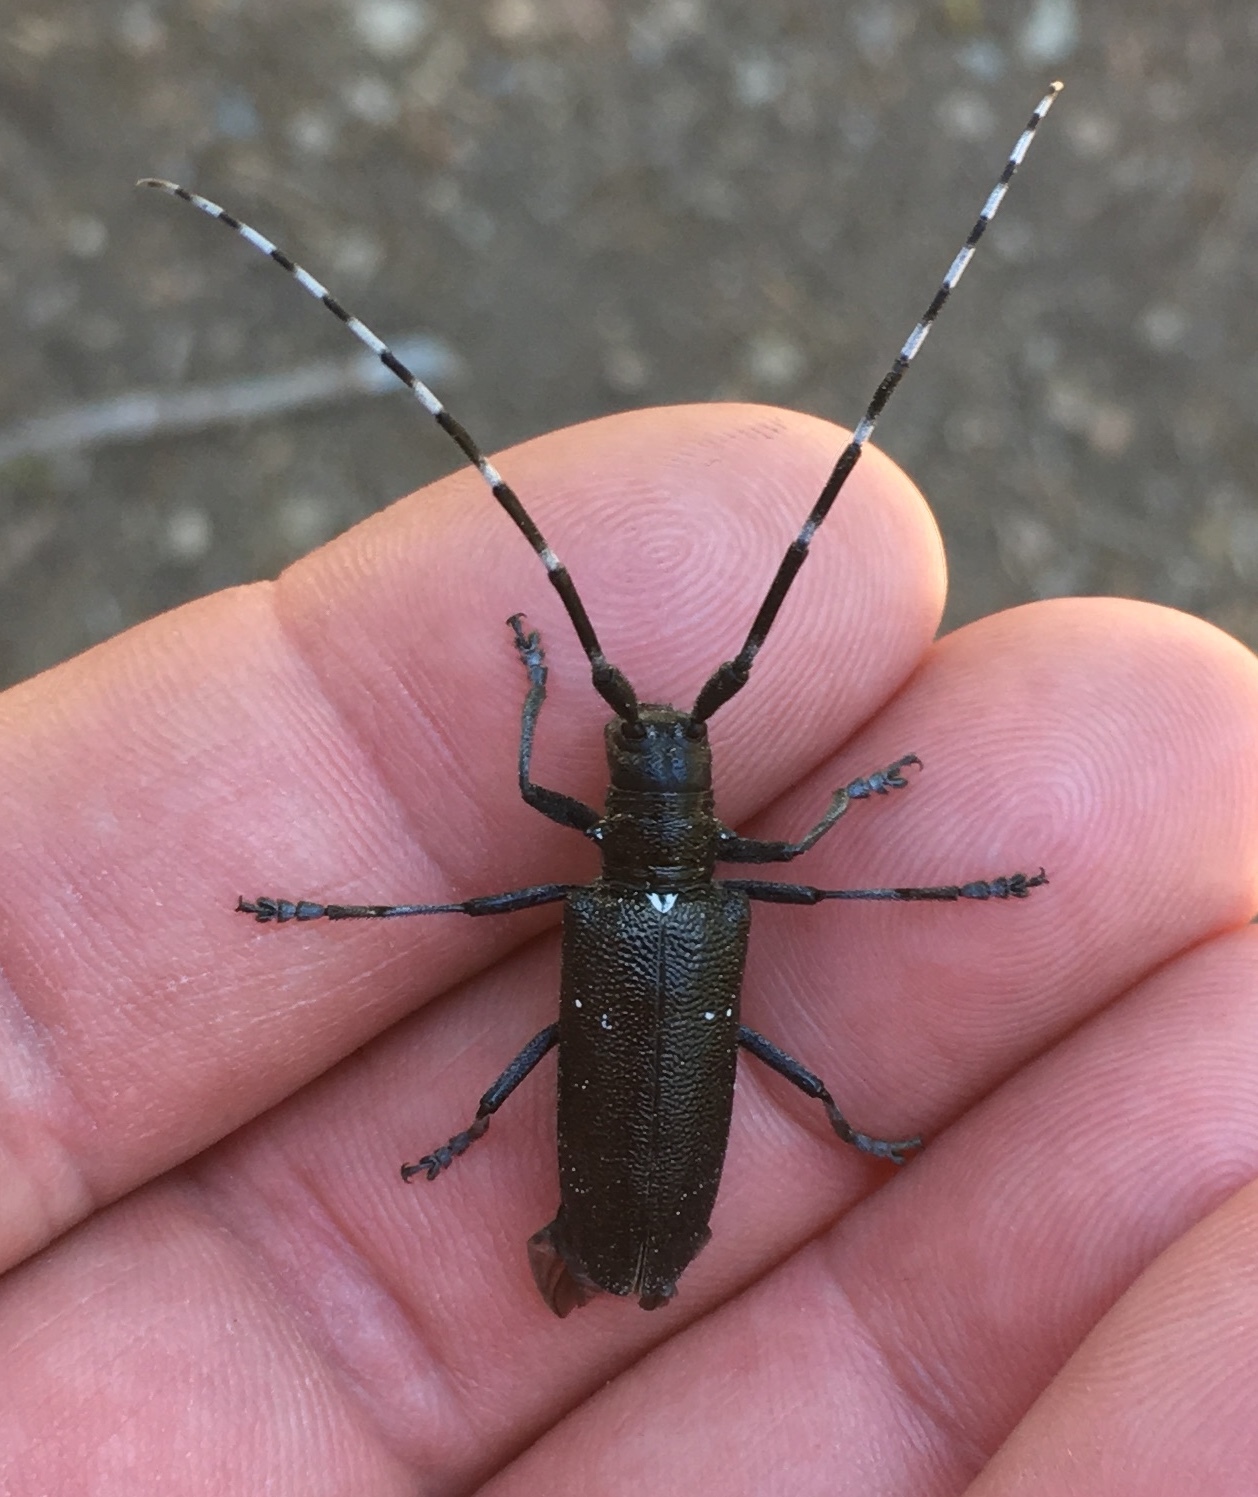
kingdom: Animalia
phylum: Arthropoda
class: Insecta
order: Coleoptera
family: Cerambycidae
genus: Monochamus
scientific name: Monochamus scutellatus
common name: White-spotted sawyer beetle
